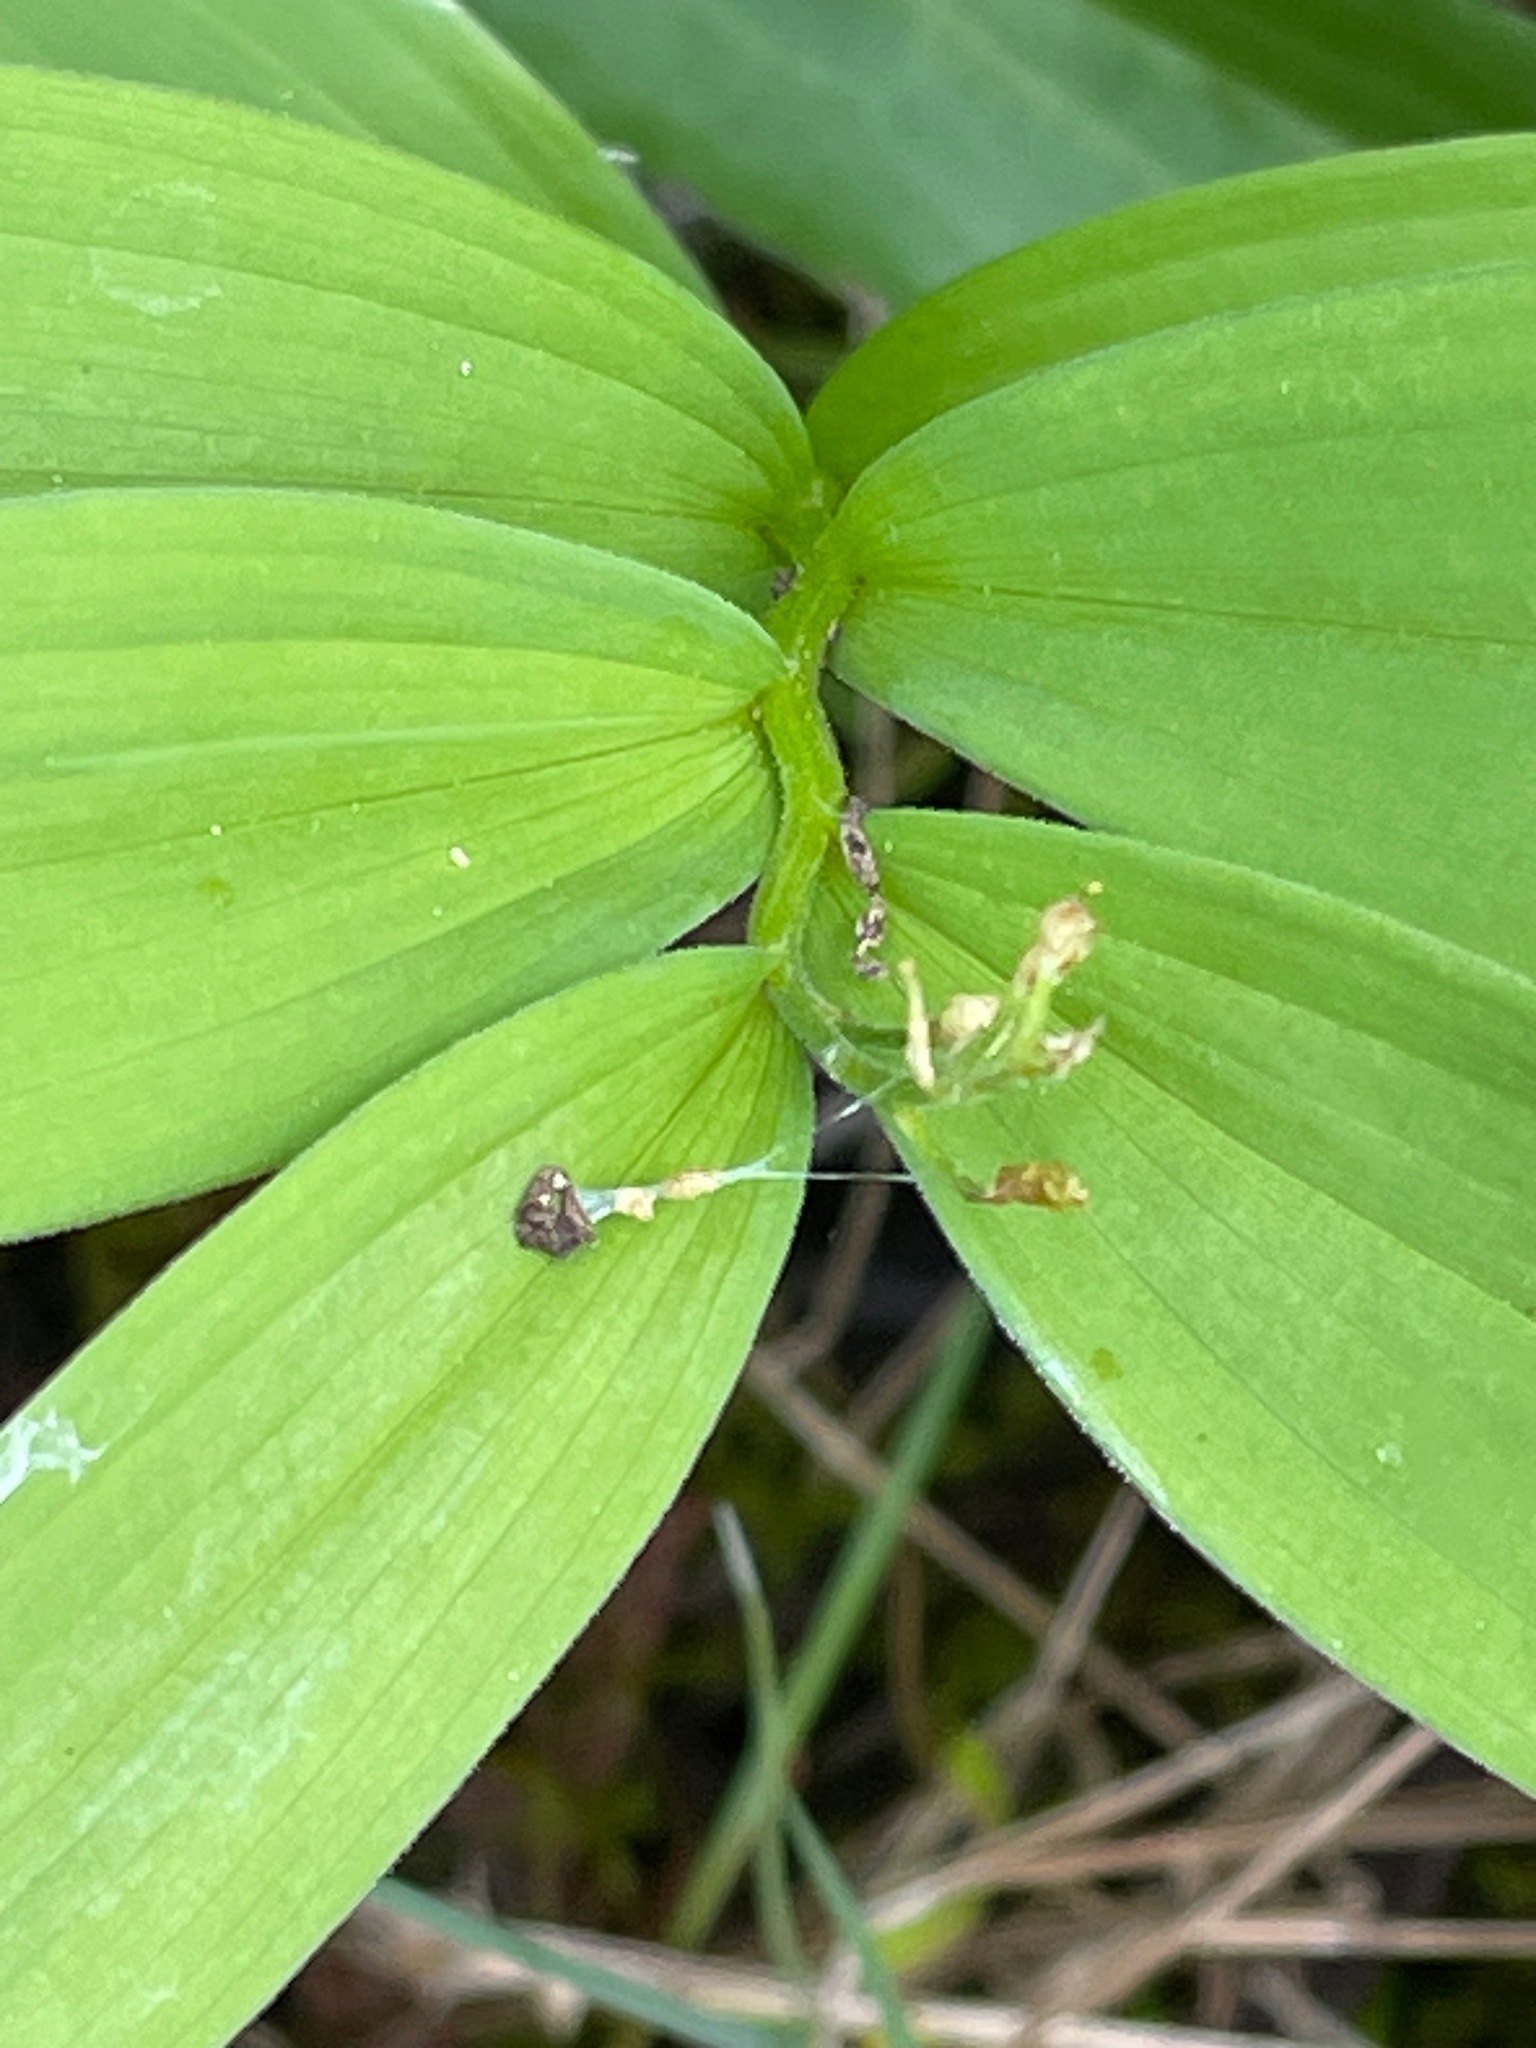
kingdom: Plantae
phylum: Tracheophyta
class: Liliopsida
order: Asparagales
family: Asparagaceae
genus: Maianthemum
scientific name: Maianthemum stellatum
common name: Little false solomon's seal
